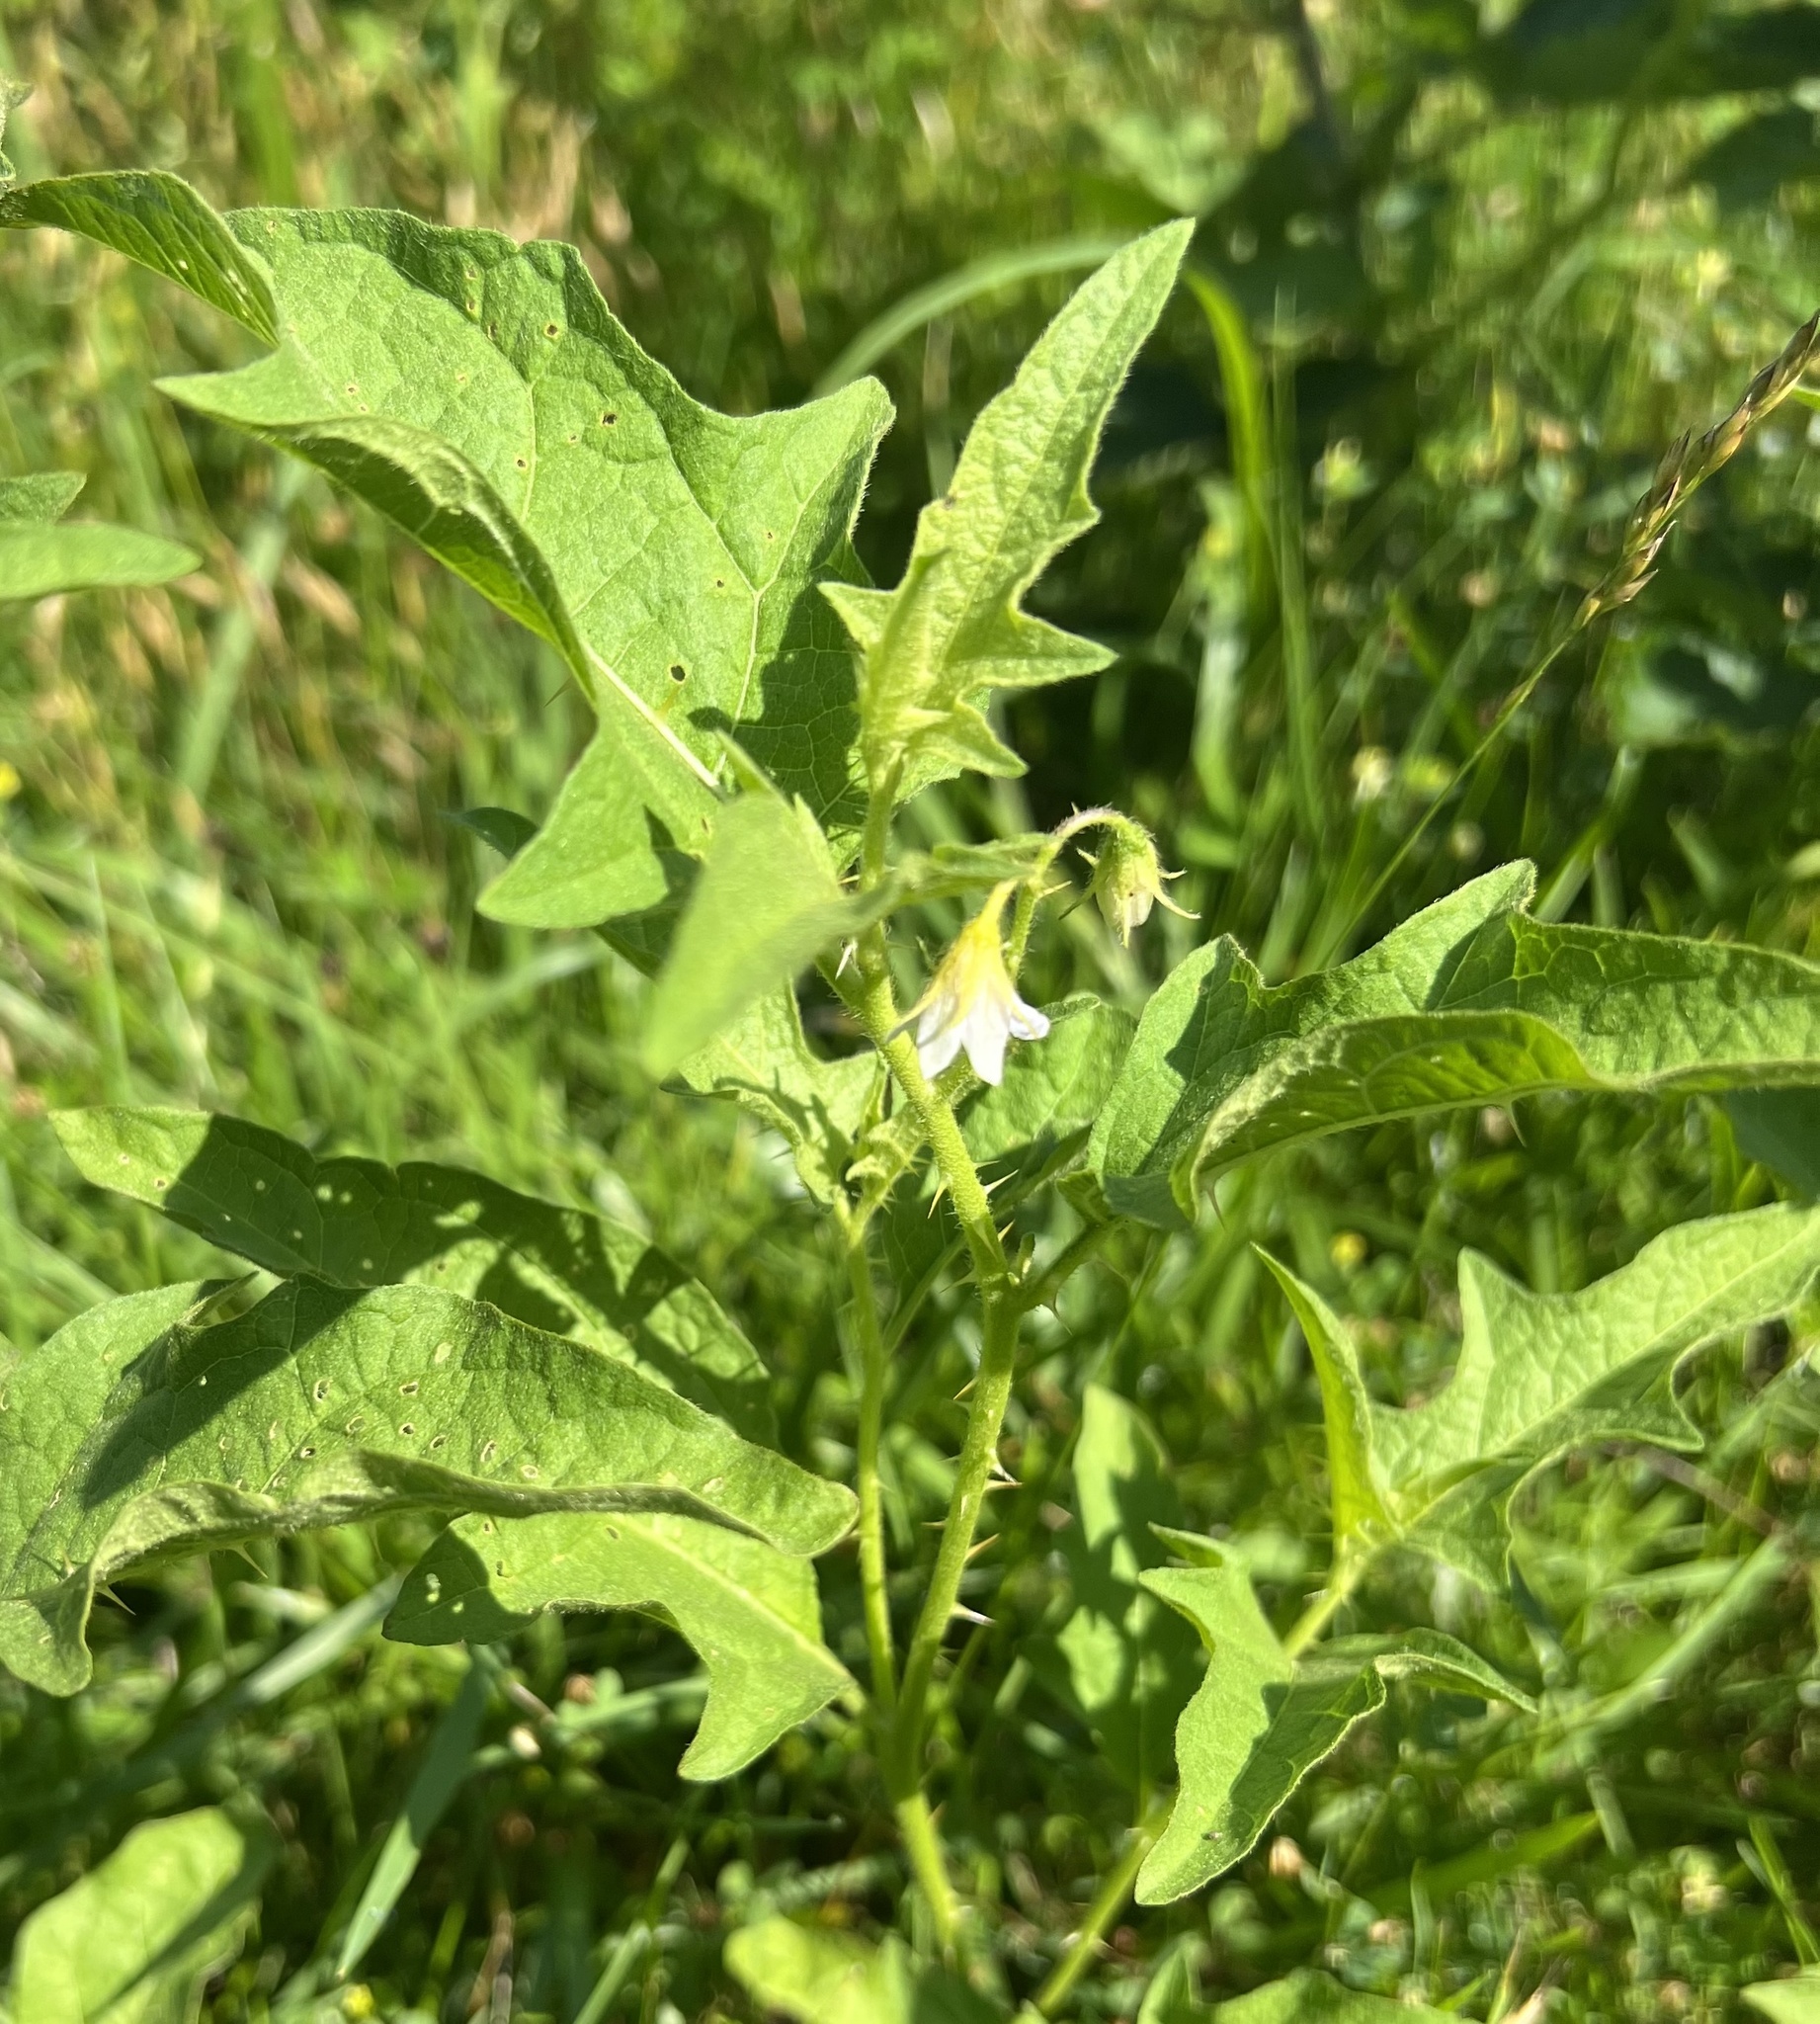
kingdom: Plantae
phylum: Tracheophyta
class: Magnoliopsida
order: Solanales
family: Solanaceae
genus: Solanum
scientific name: Solanum carolinense
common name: Horse-nettle
